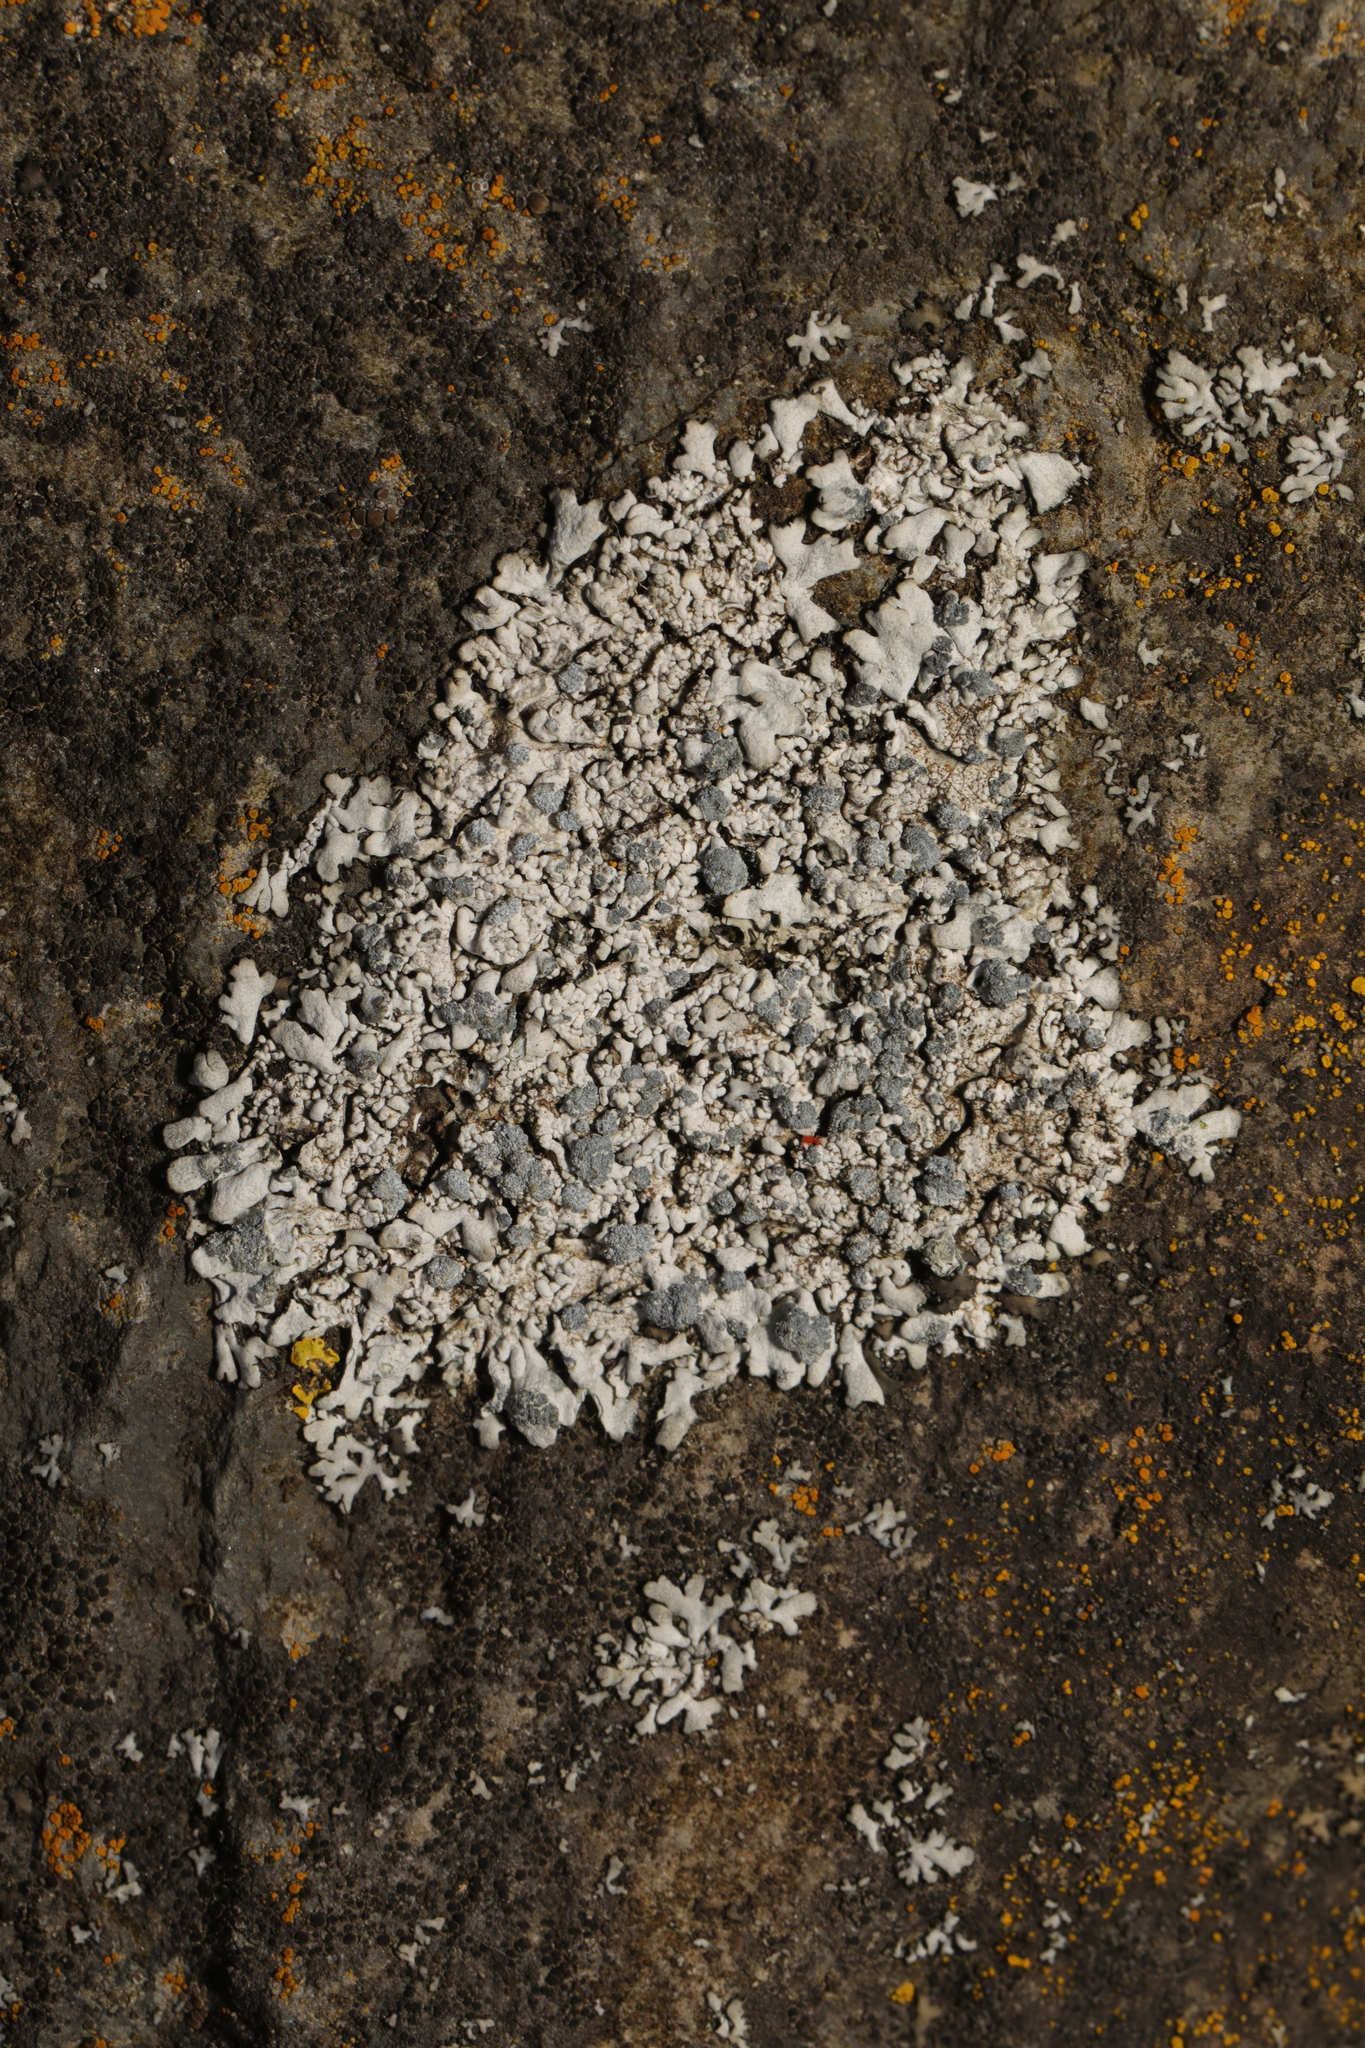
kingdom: Fungi
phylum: Ascomycota
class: Lecanoromycetes
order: Caliciales
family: Physciaceae
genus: Physcia
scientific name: Physcia caesia
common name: Blue-gray rosette lichen
